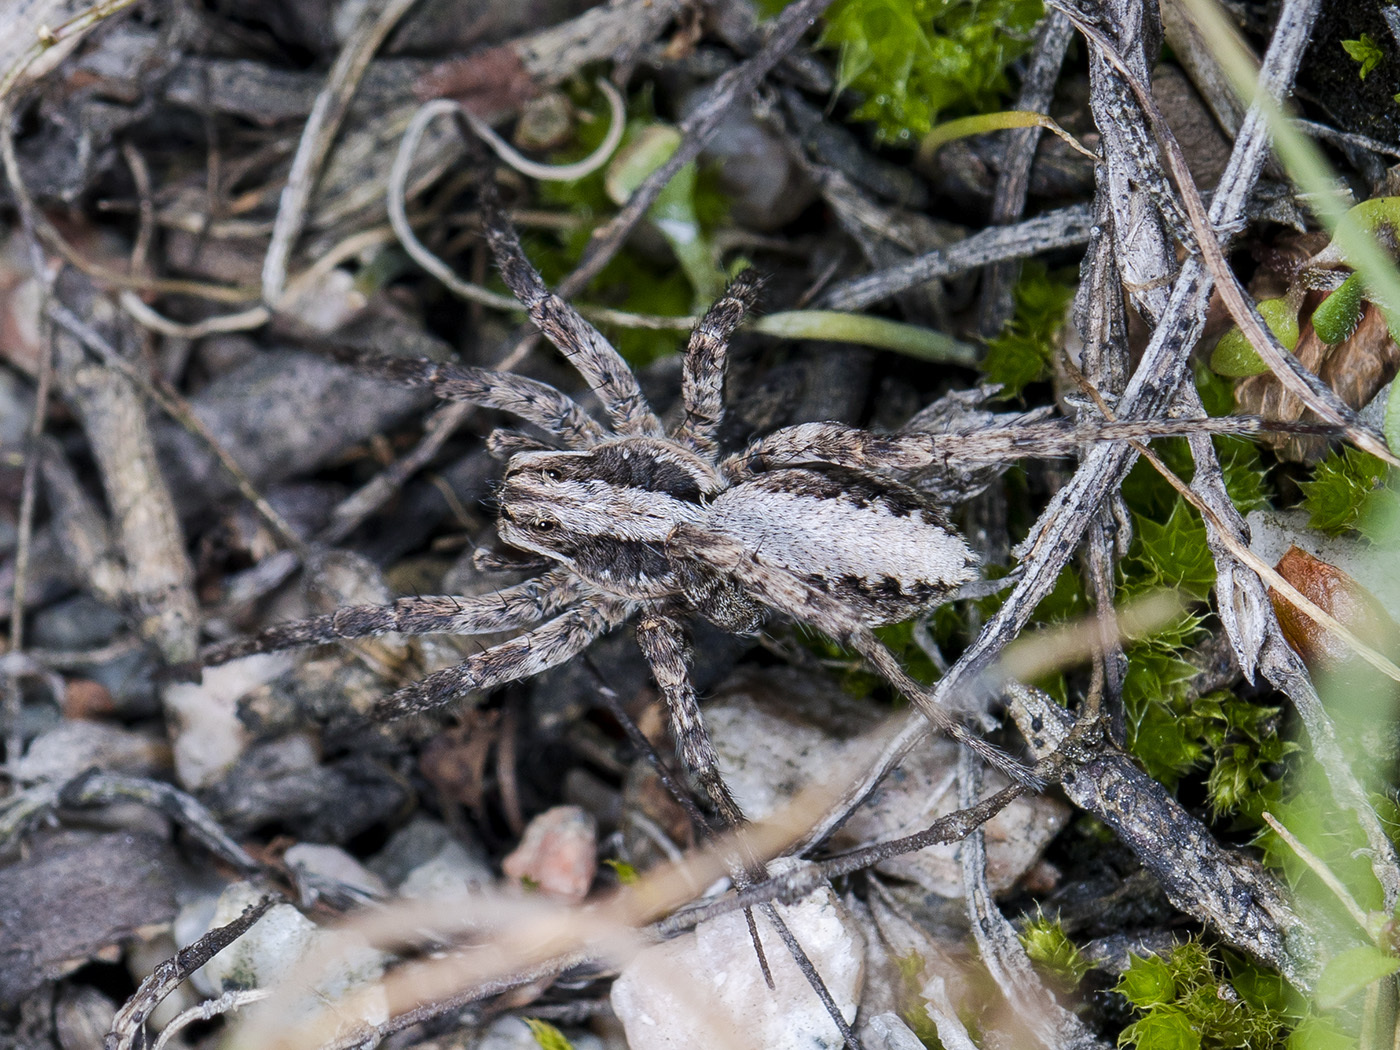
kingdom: Animalia
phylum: Arthropoda
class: Arachnida
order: Araneae
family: Lycosidae
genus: Alopecosa
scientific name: Alopecosa cursor
